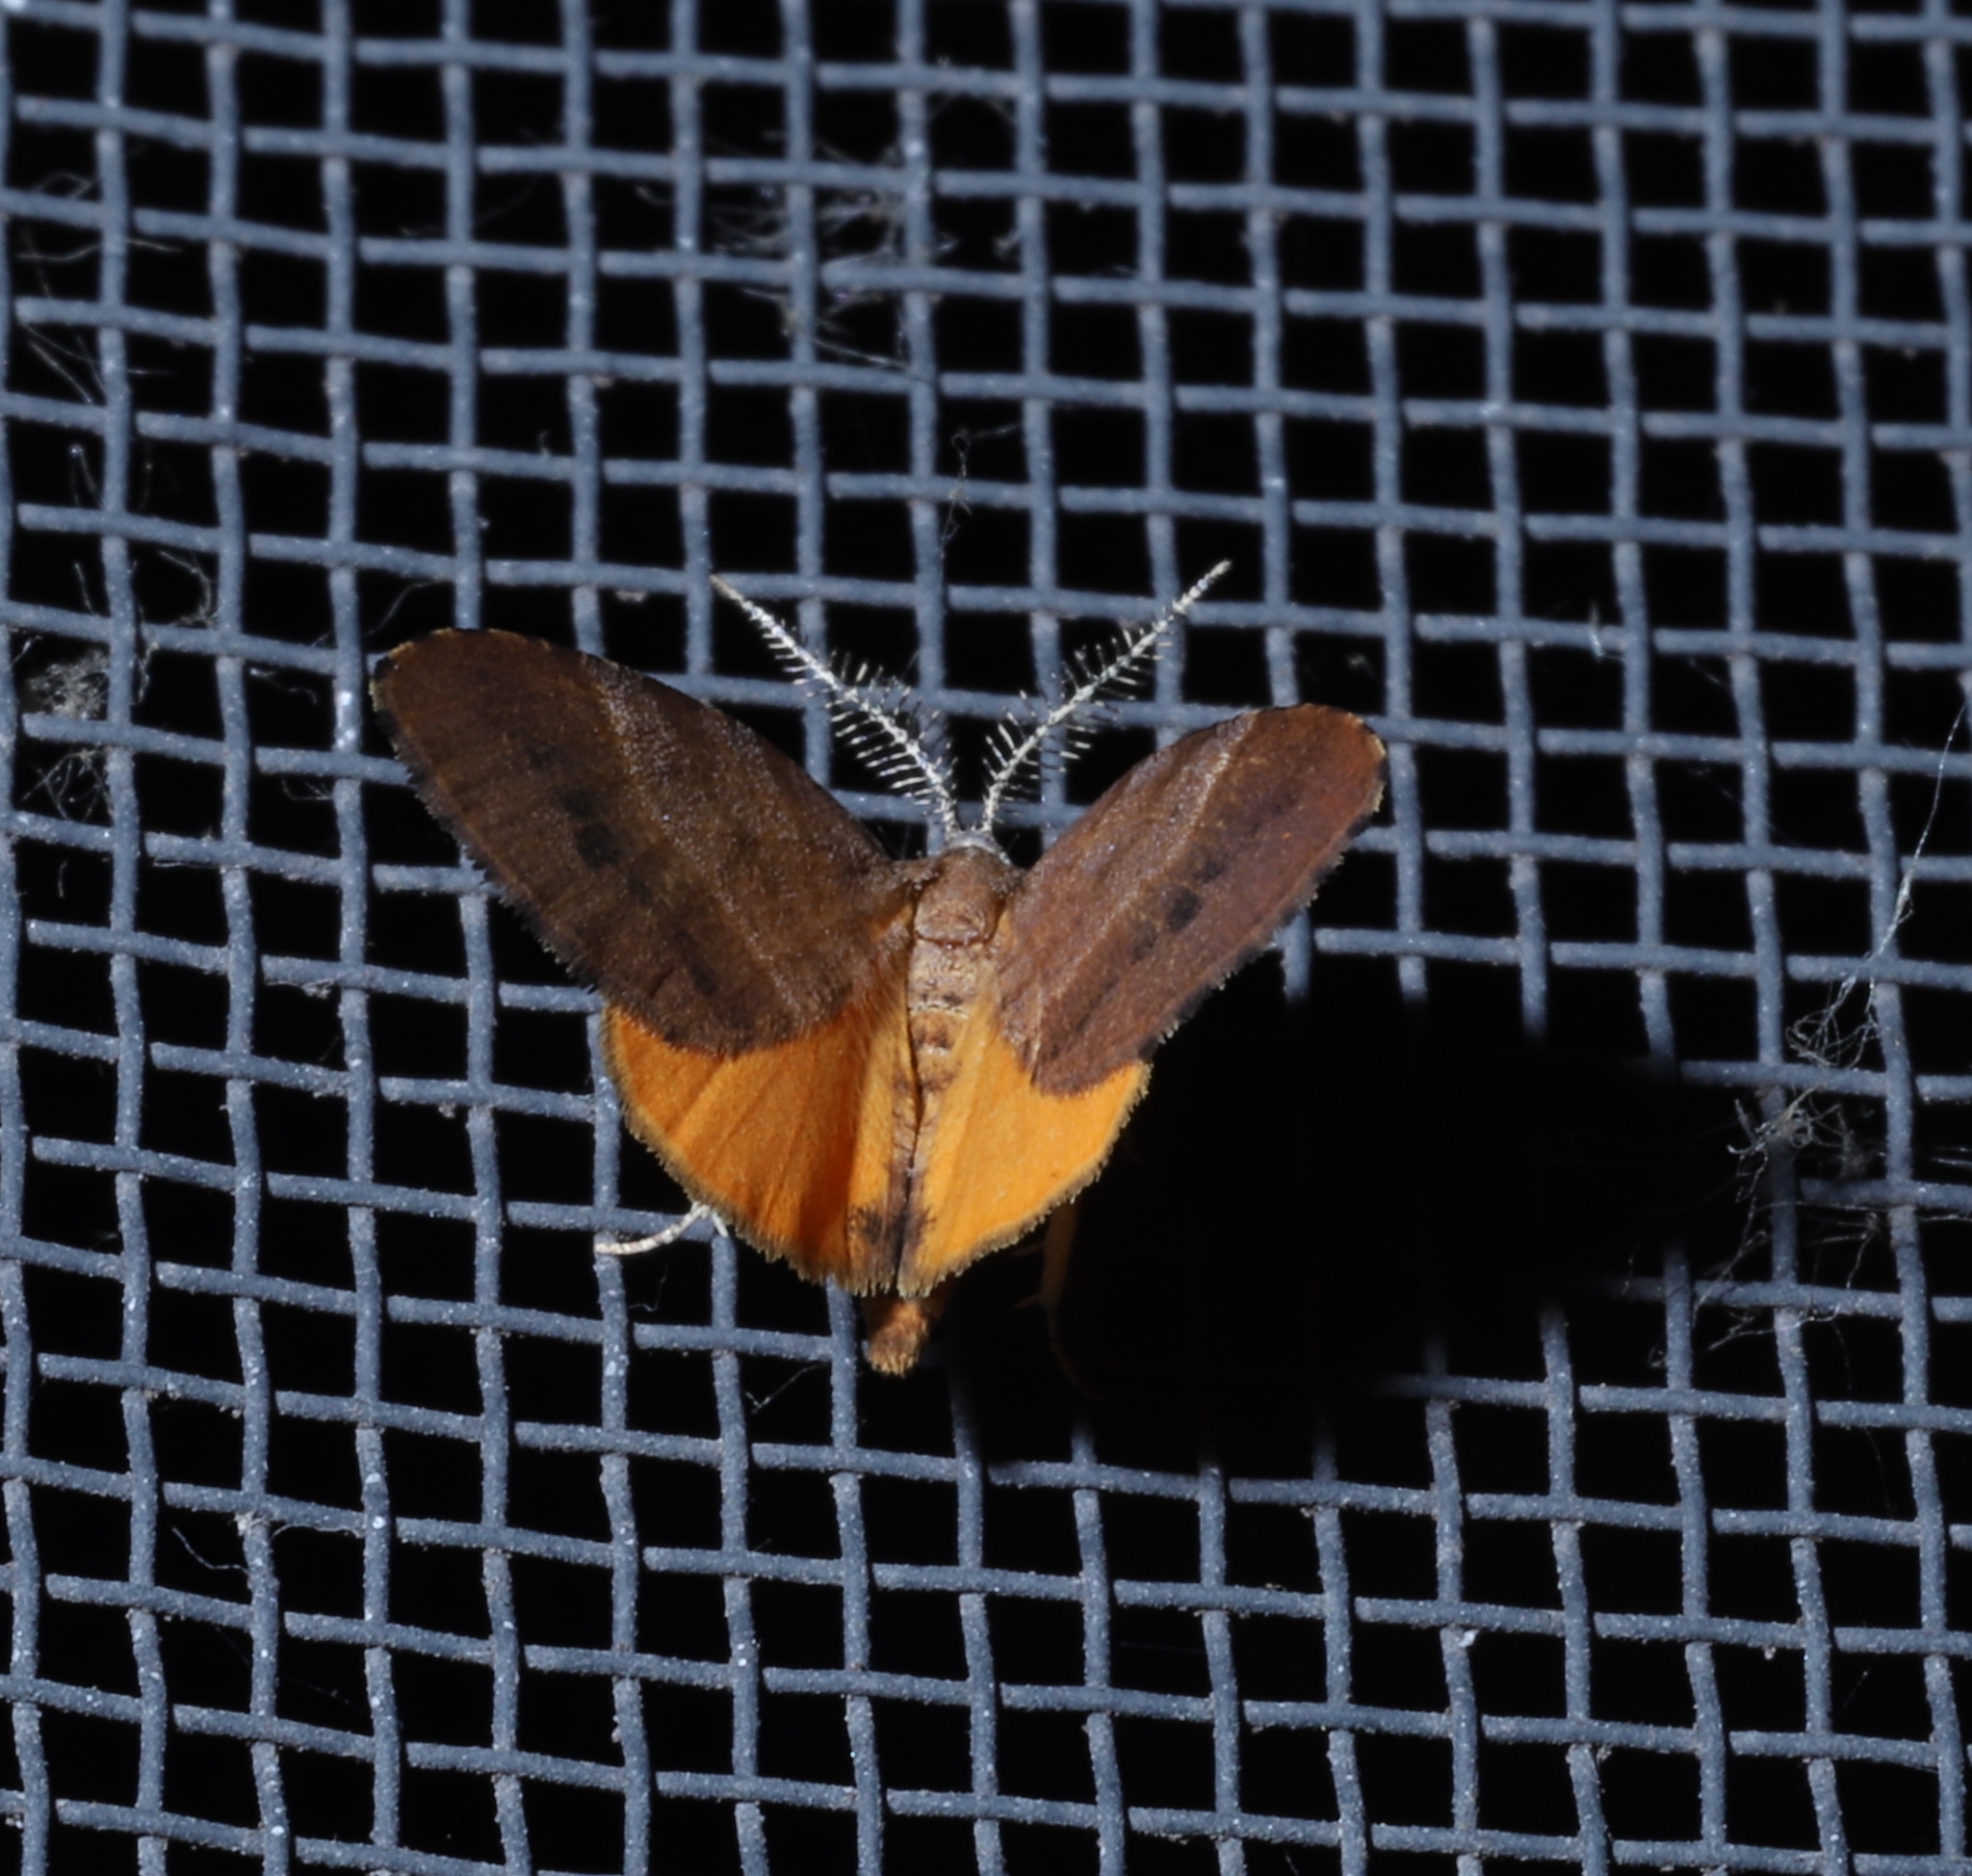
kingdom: Animalia
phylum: Arthropoda
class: Insecta
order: Lepidoptera
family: Geometridae
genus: Mellilla
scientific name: Mellilla xanthometata
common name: Orange wing moth
